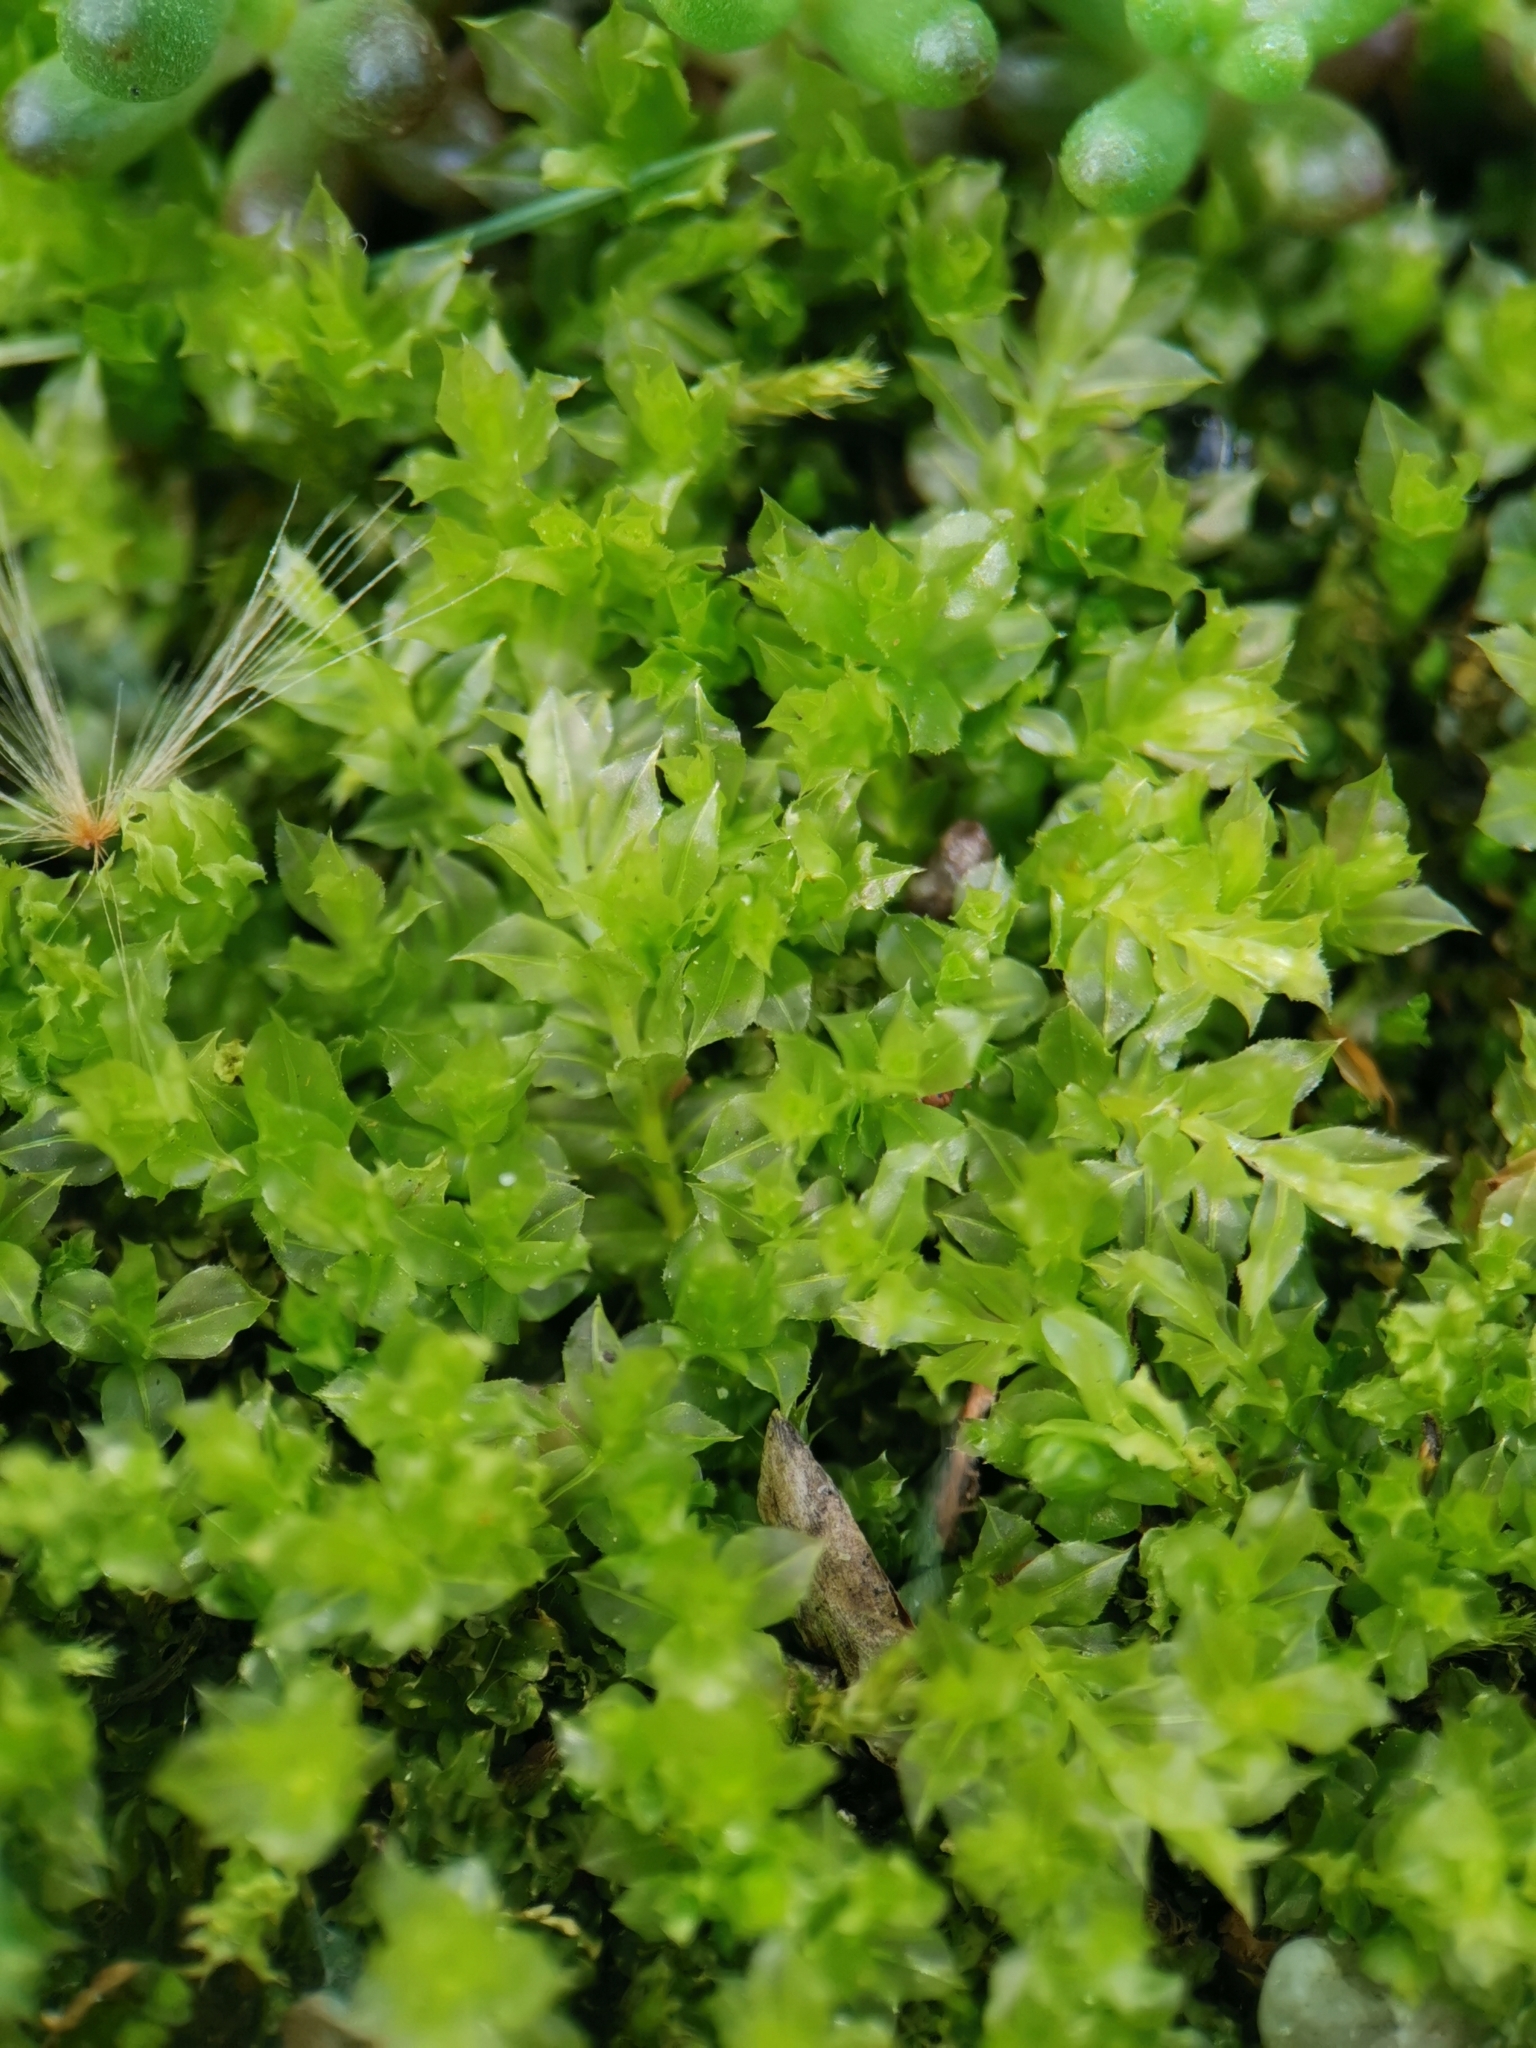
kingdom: Plantae
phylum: Bryophyta
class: Bryopsida
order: Bryales
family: Mniaceae
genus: Plagiomnium
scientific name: Plagiomnium cuspidatum
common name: Woodsy leafy moss
